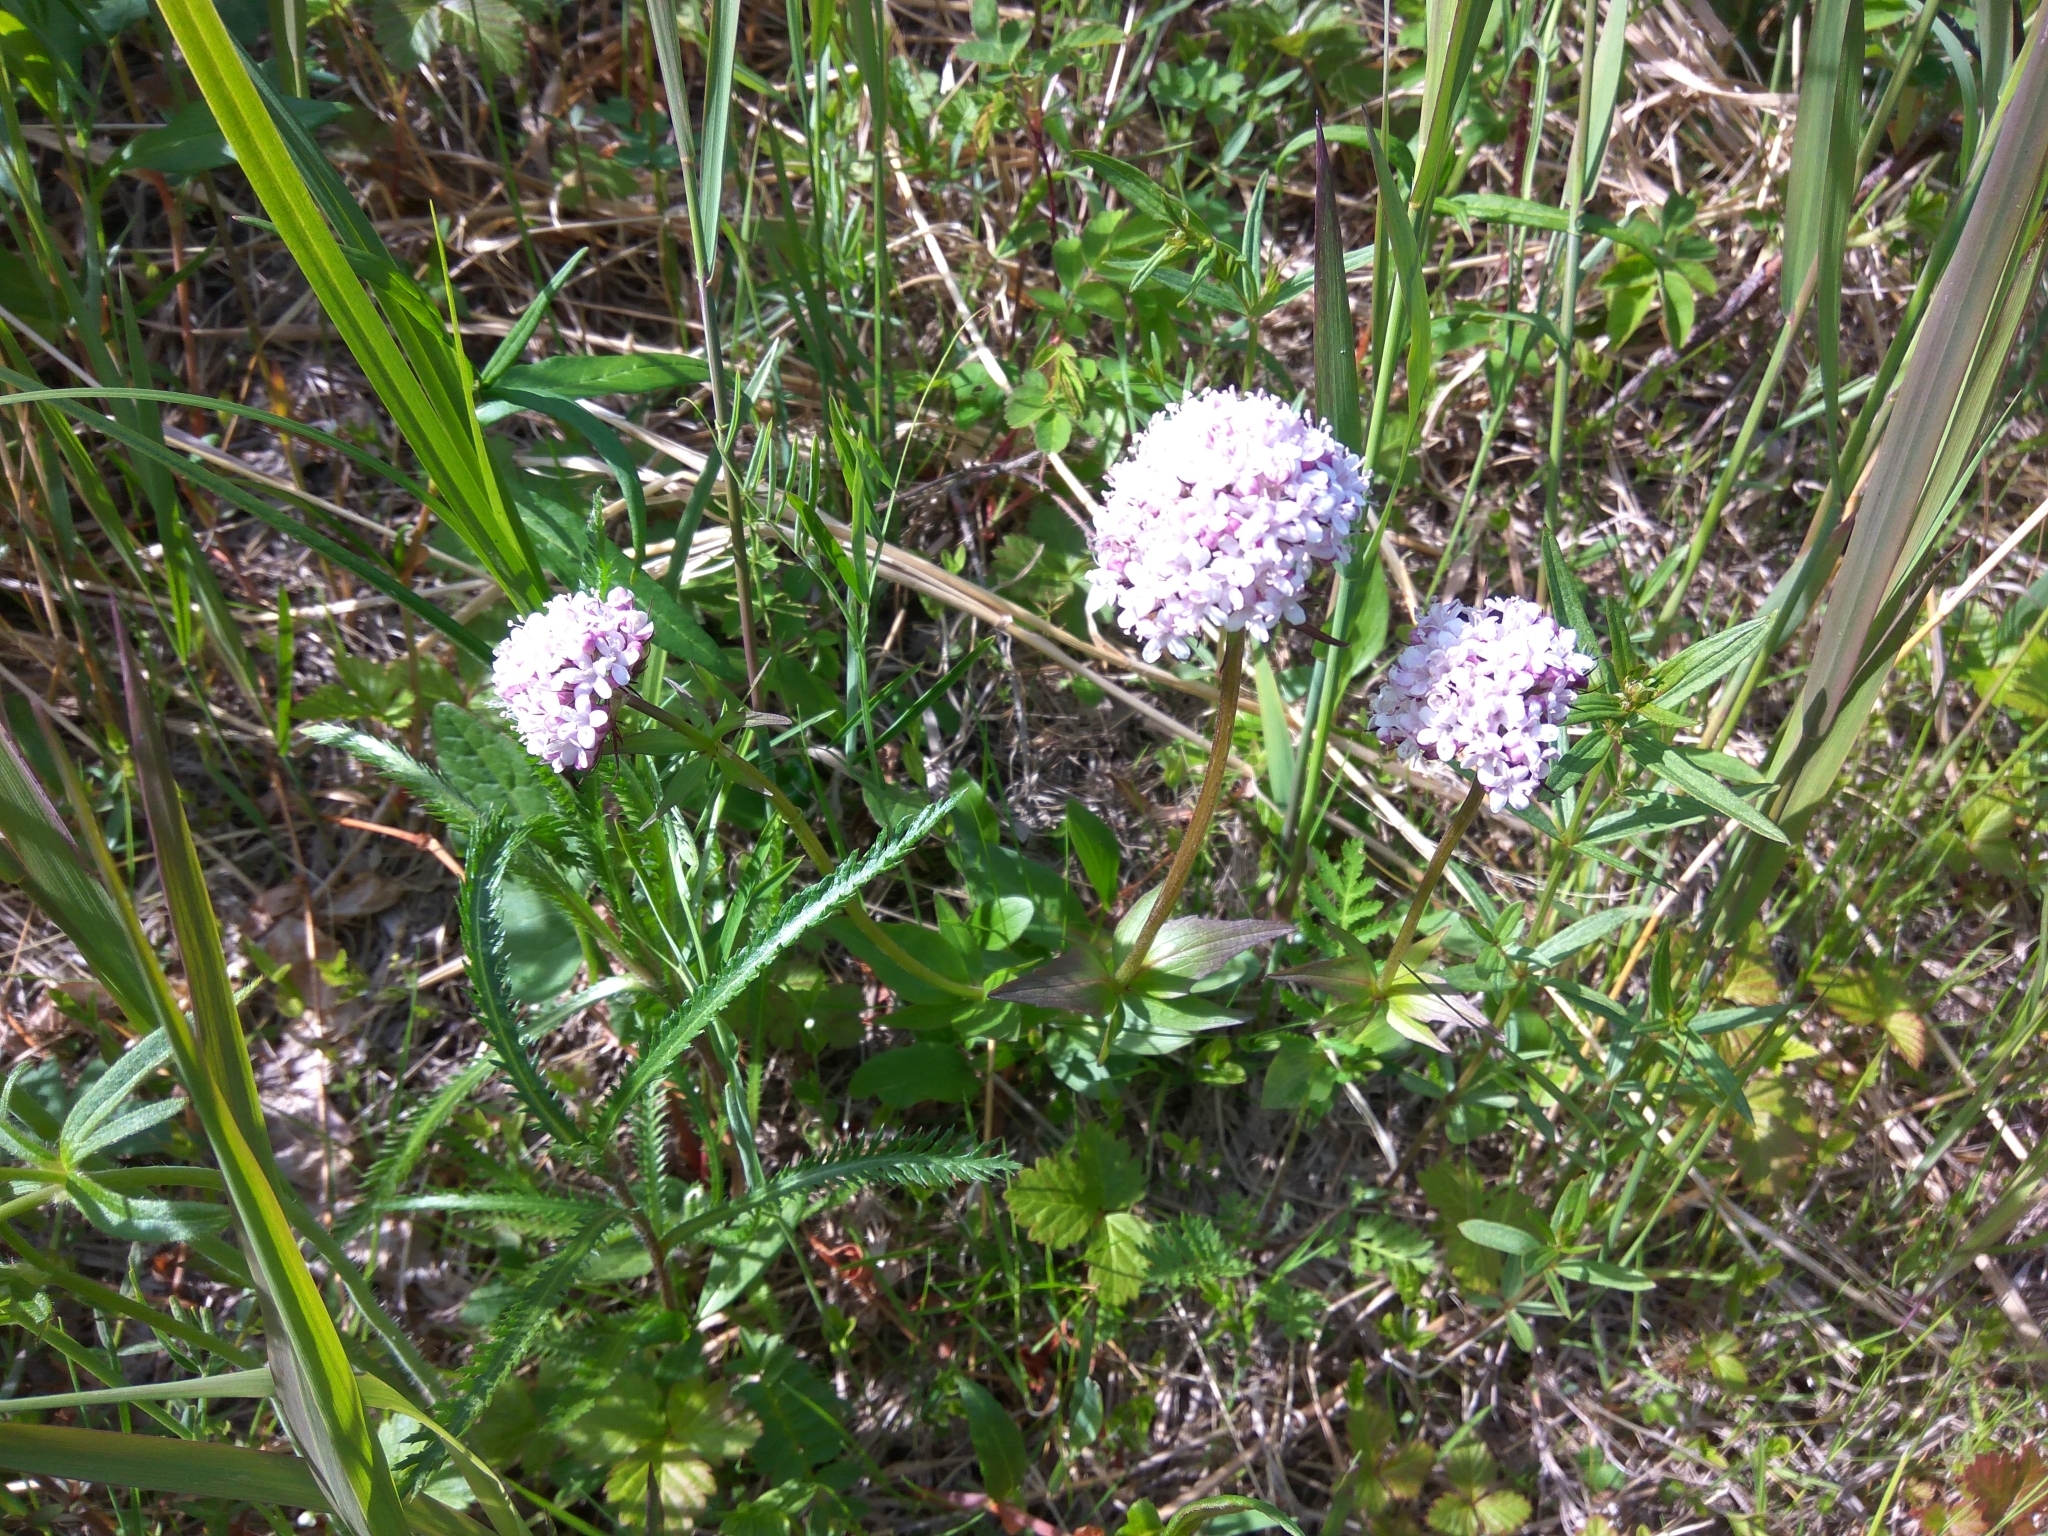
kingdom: Plantae
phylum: Tracheophyta
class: Magnoliopsida
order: Dipsacales
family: Caprifoliaceae
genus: Valeriana
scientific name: Valeriana capitata
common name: Capitate valerian
